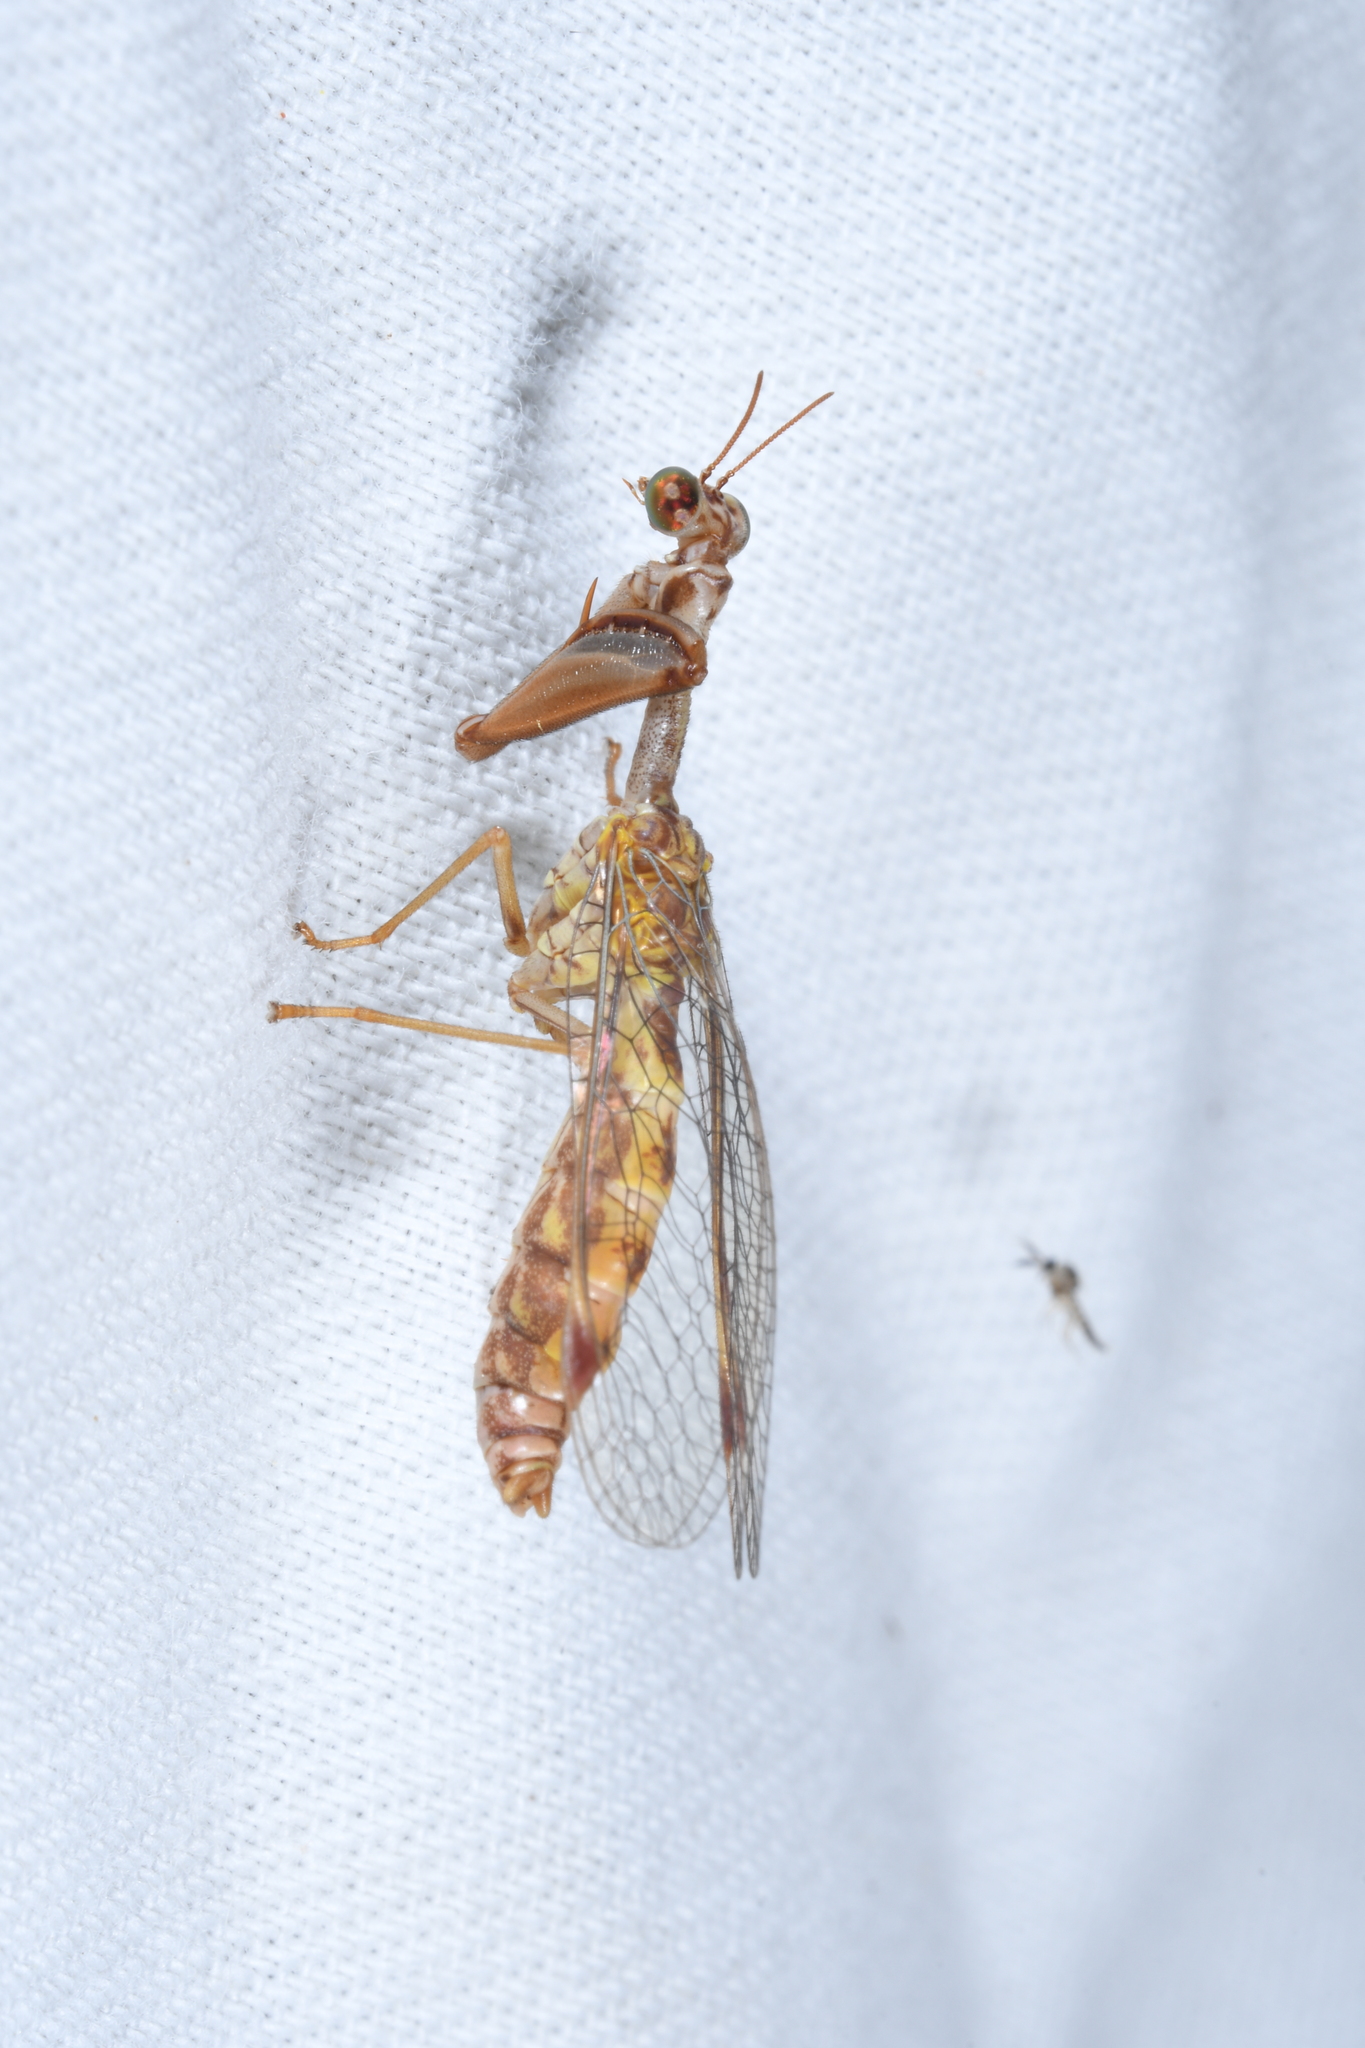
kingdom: Animalia
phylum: Arthropoda
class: Insecta
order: Neuroptera
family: Mantispidae
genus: Mantispa
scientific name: Mantispa styriaca
